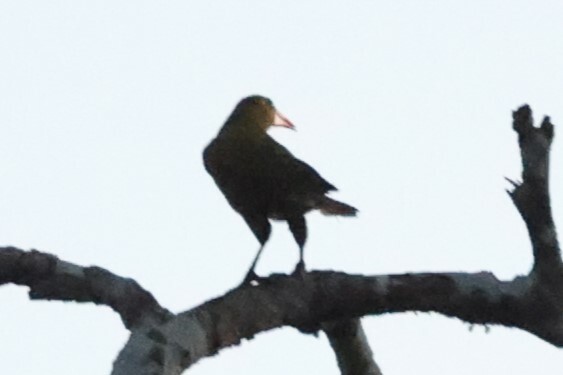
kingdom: Animalia
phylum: Chordata
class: Aves
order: Passeriformes
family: Icteridae
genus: Psarocolius
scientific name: Psarocolius viridis
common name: Green oropendola
